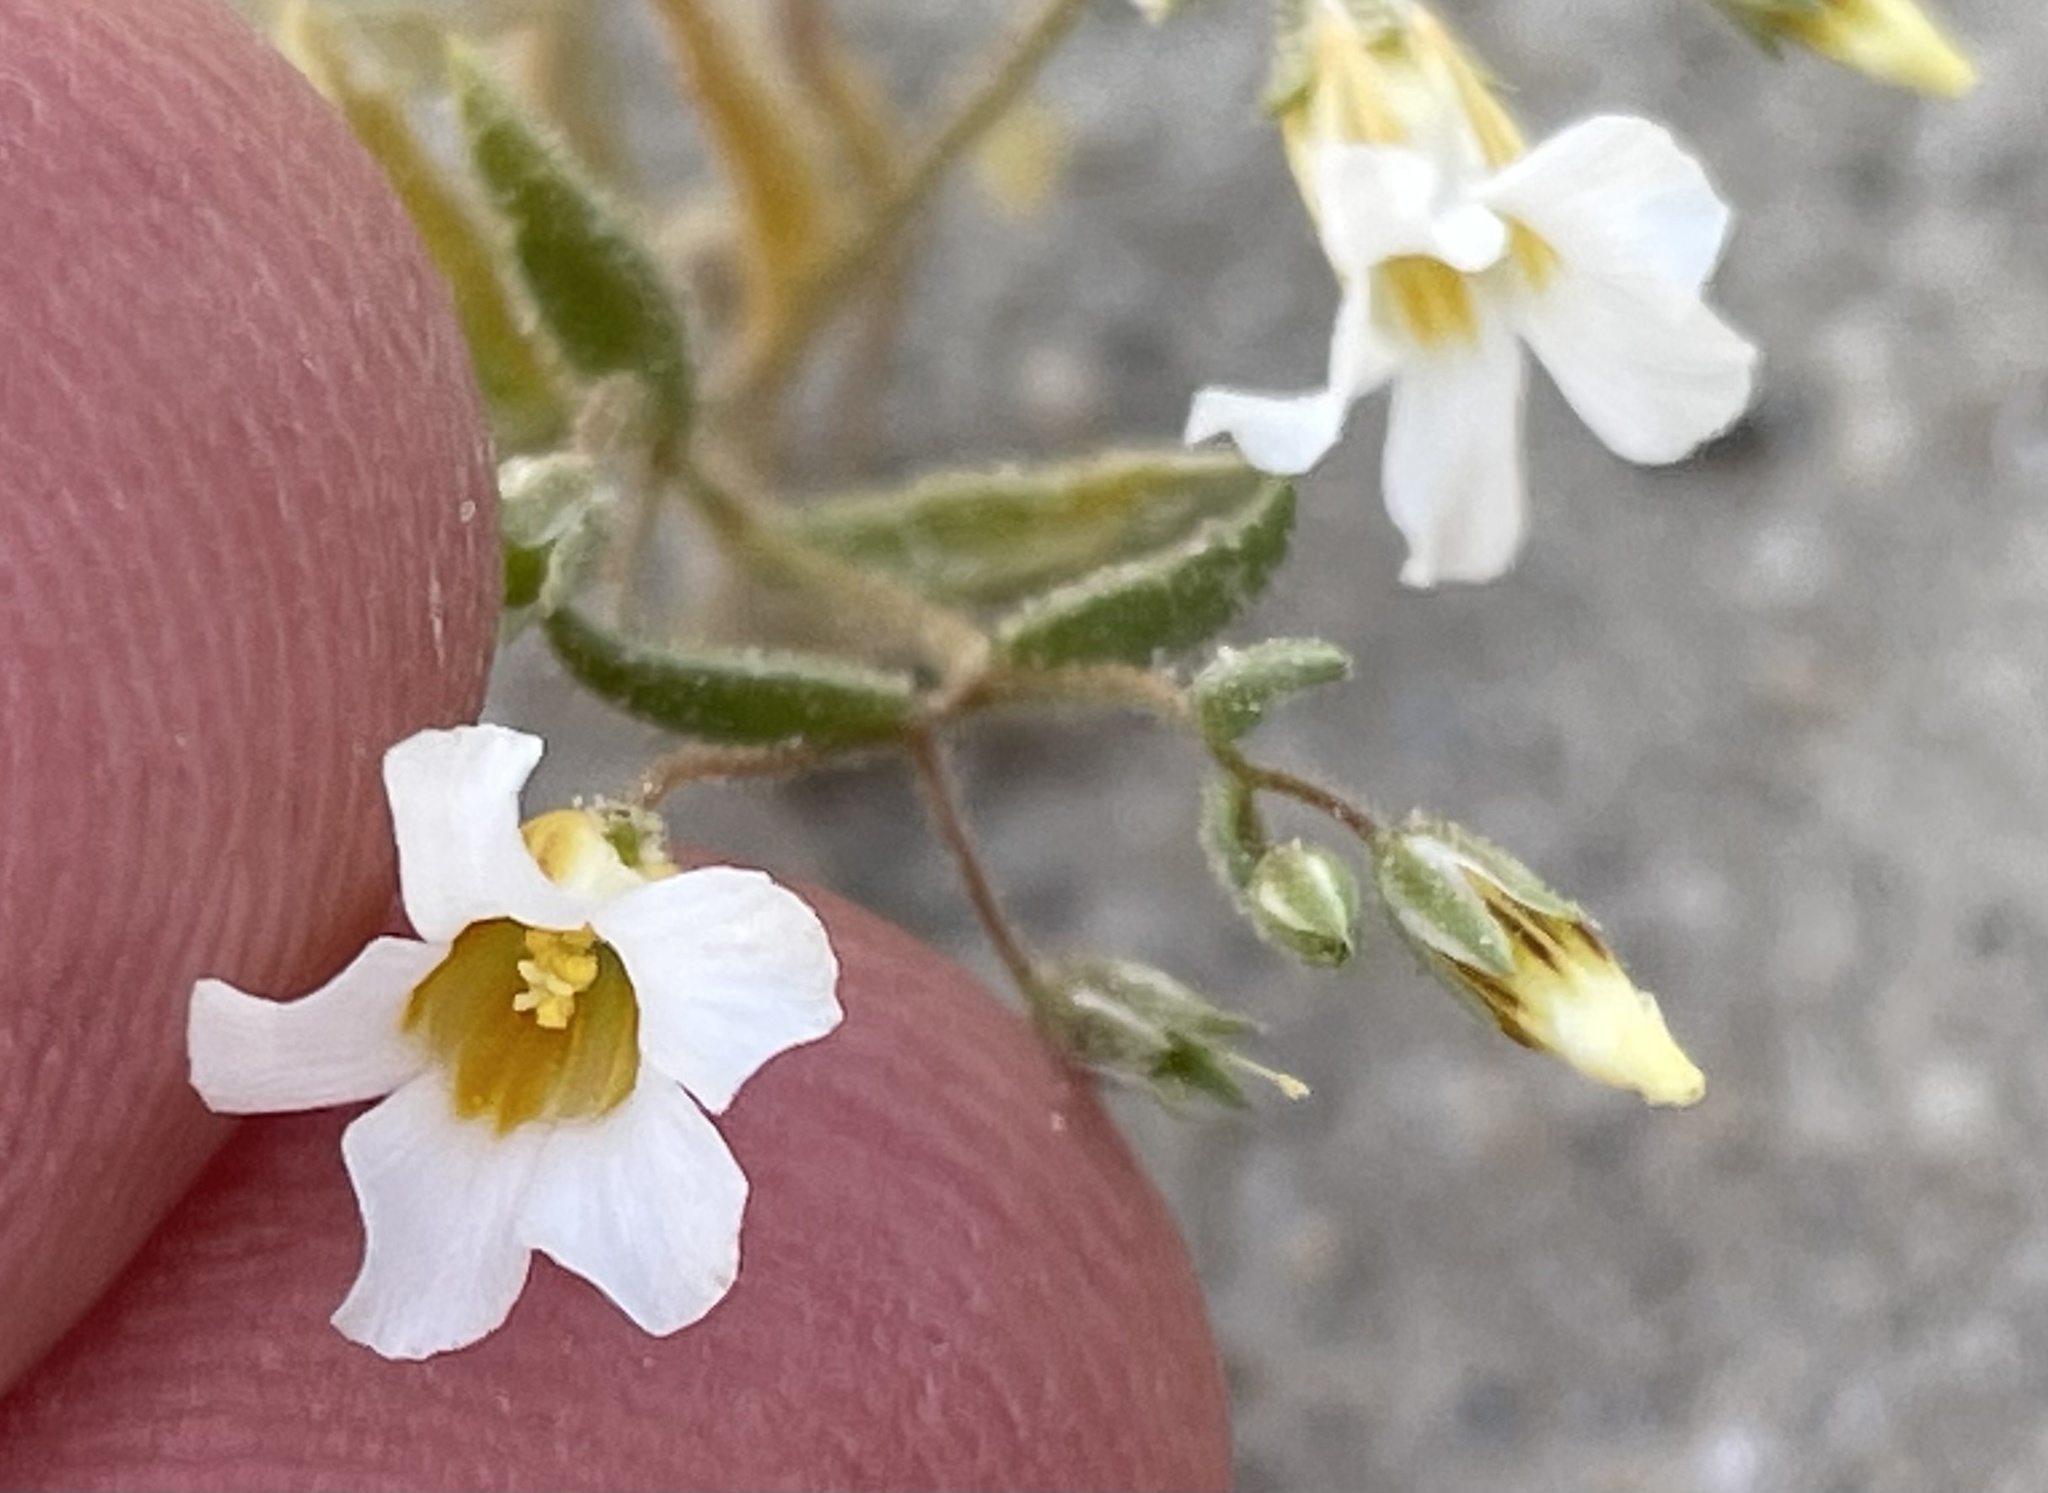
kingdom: Plantae
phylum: Tracheophyta
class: Magnoliopsida
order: Ericales
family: Polemoniaceae
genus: Linanthus
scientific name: Linanthus campanulatus
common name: Bellshape gilia
